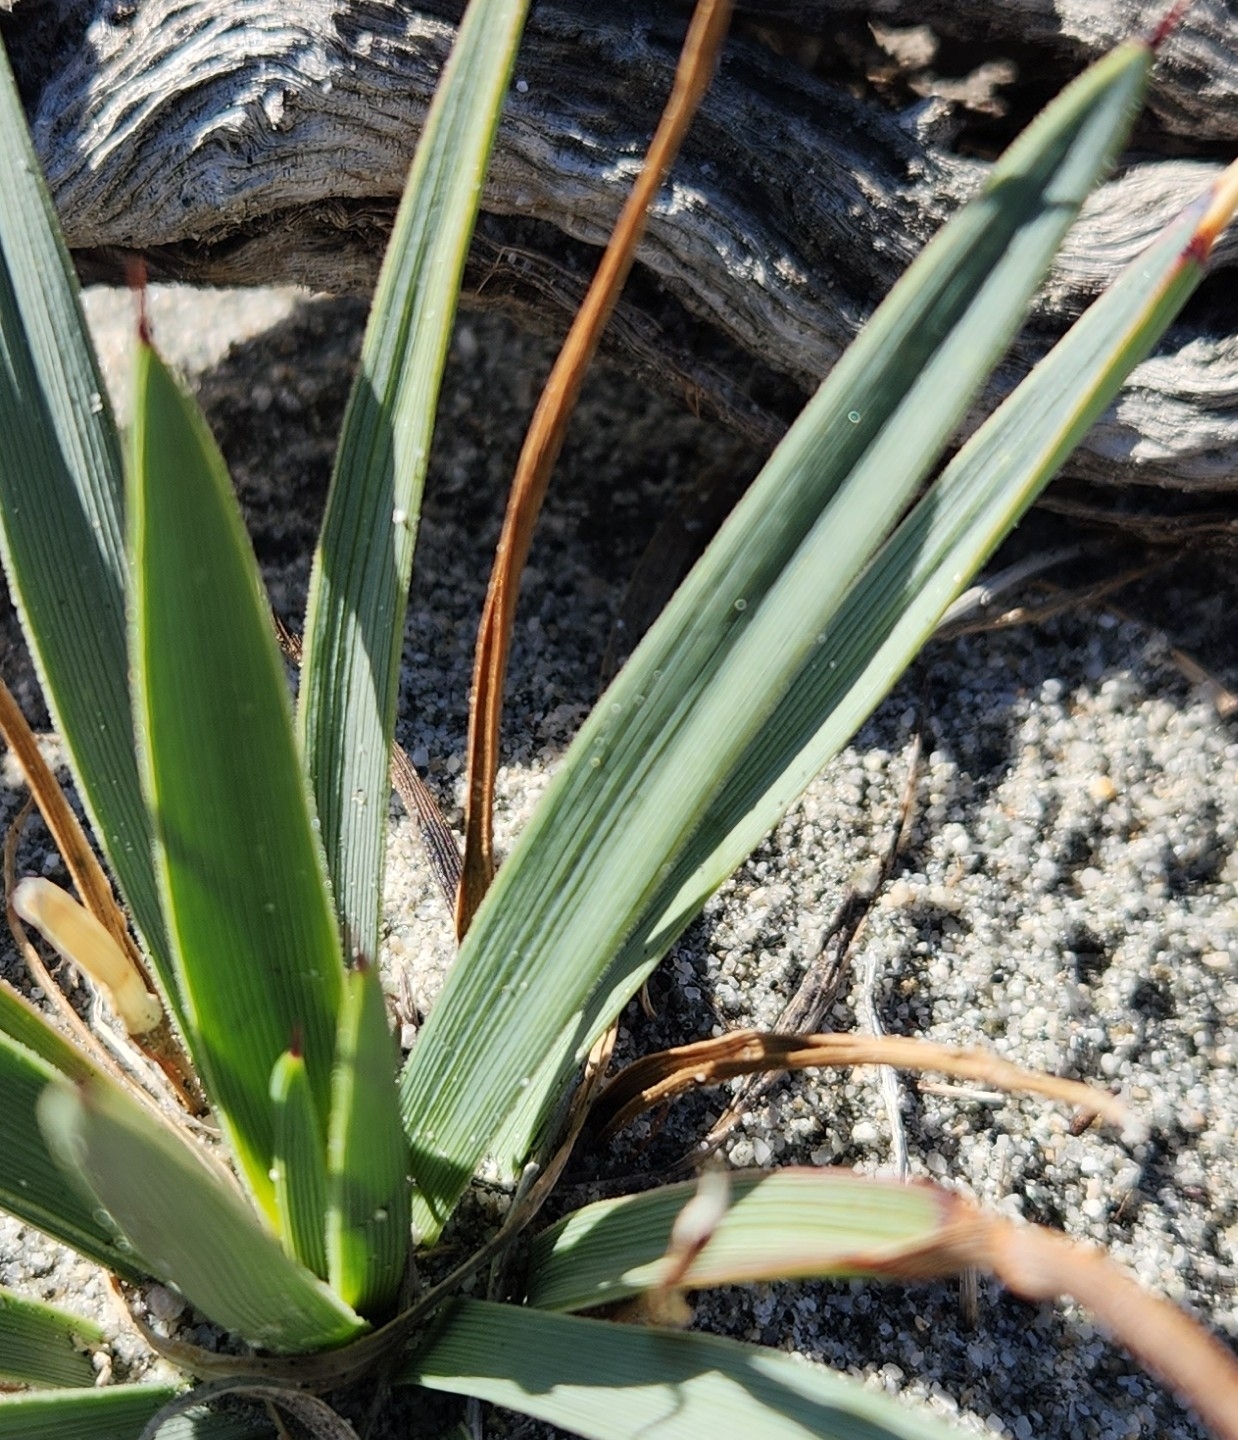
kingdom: Plantae
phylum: Tracheophyta
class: Liliopsida
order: Asparagales
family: Asparagaceae
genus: Hesperoyucca
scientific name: Hesperoyucca whipplei
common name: Our lord's-candle
